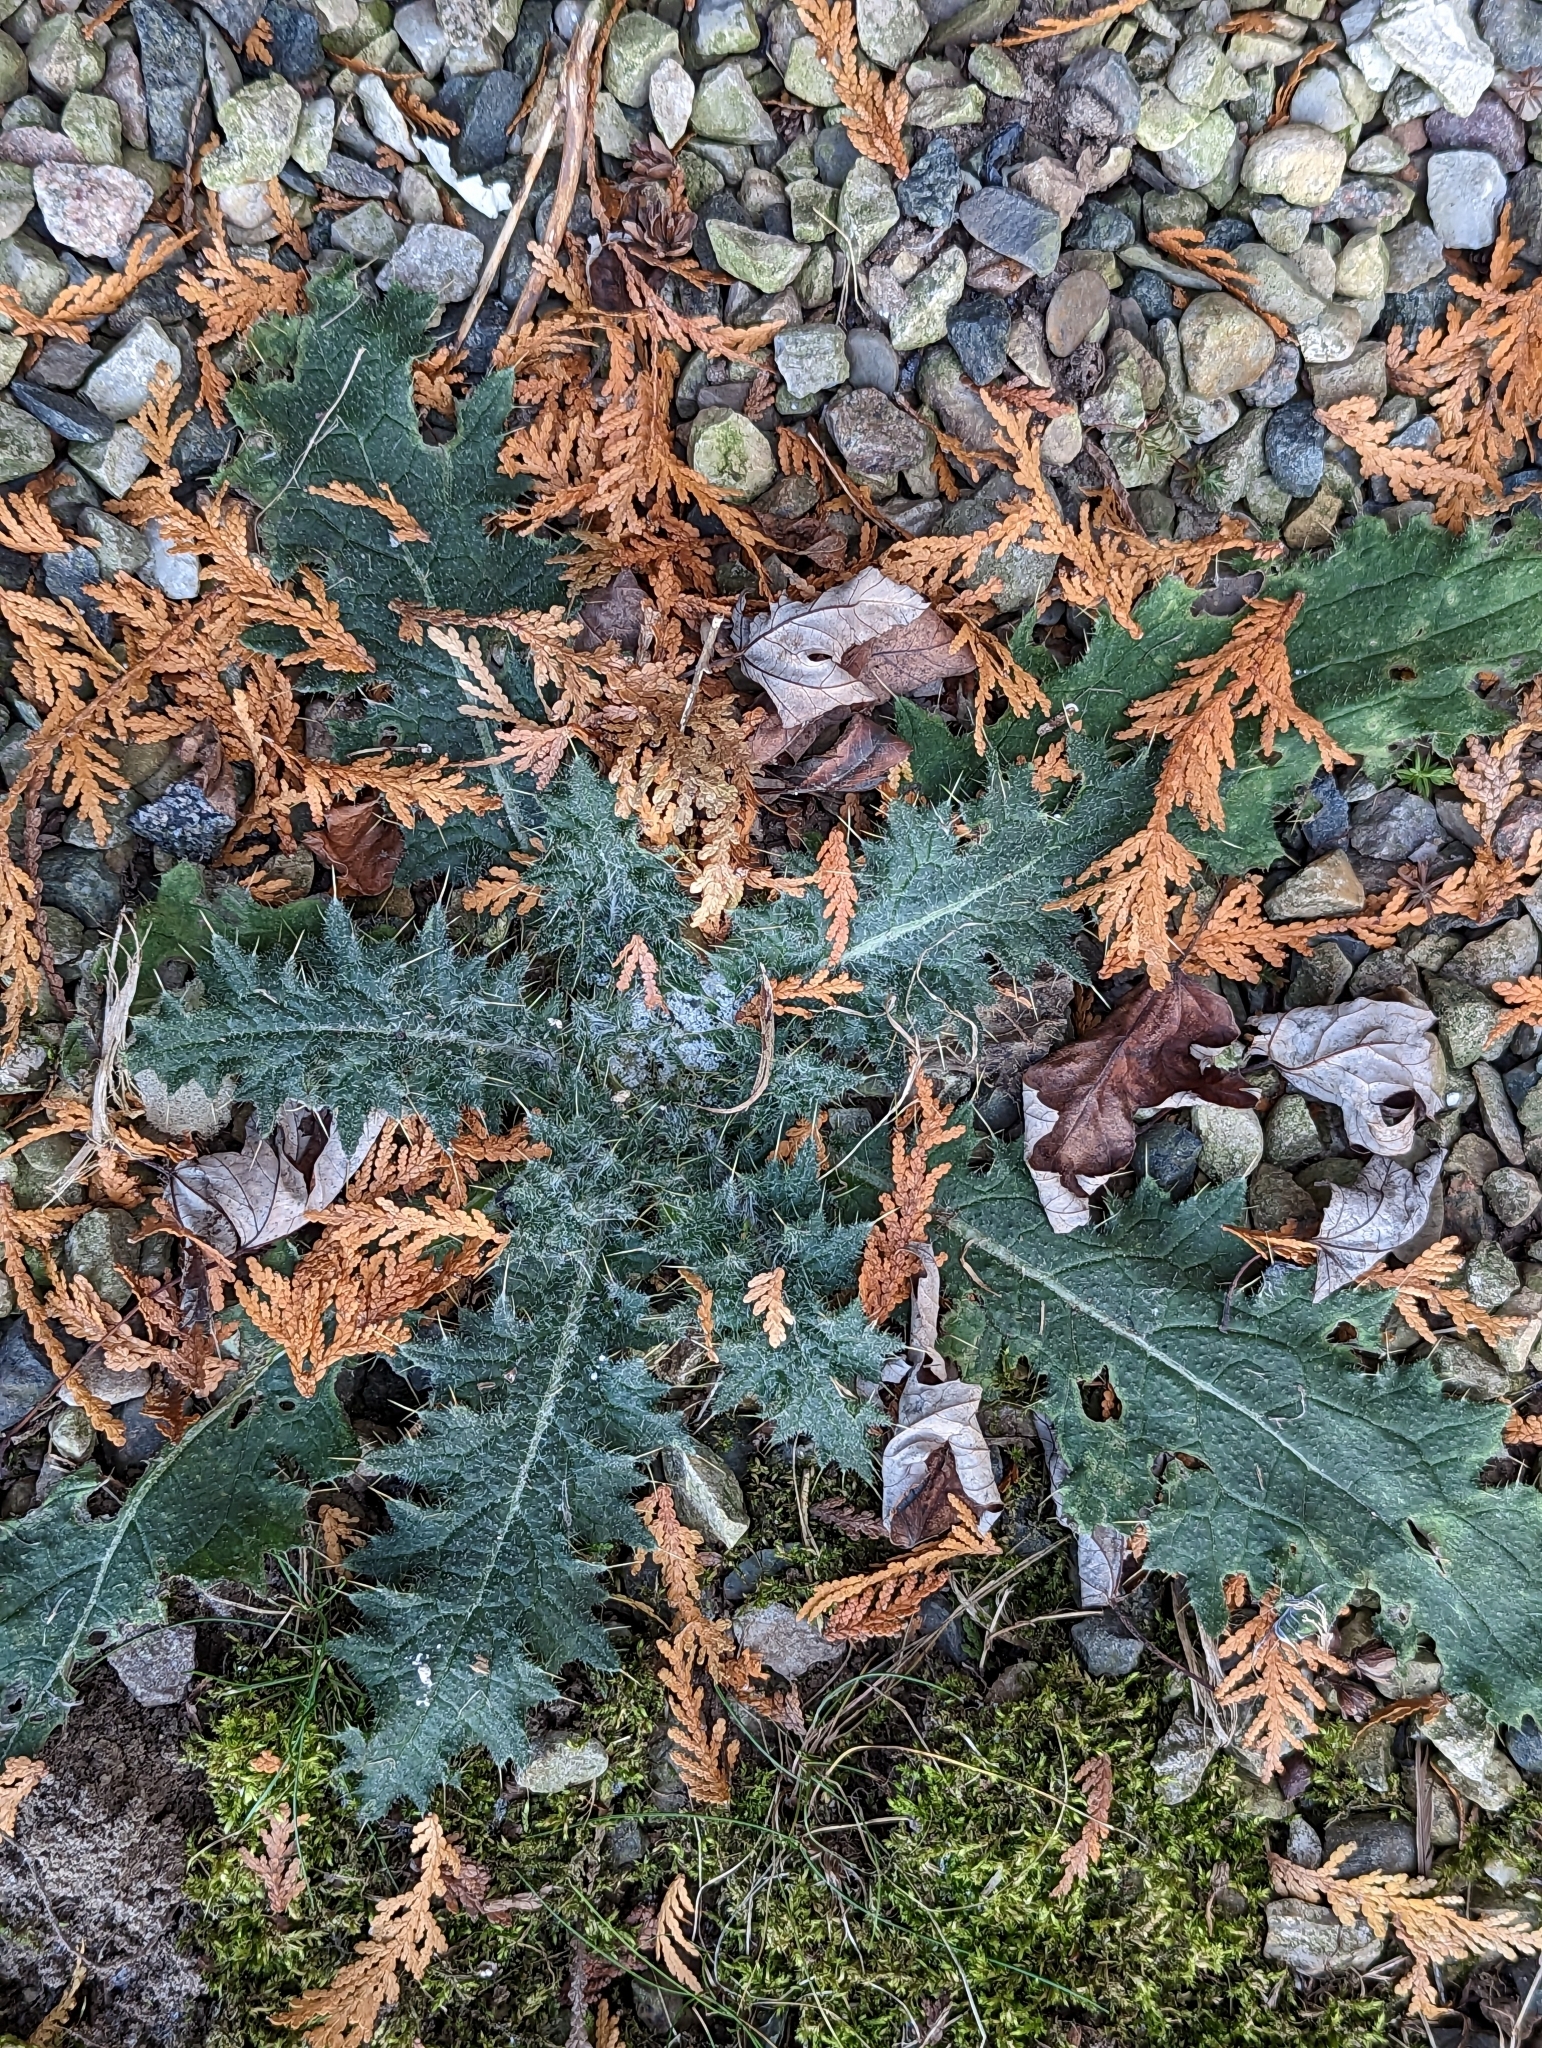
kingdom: Plantae
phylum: Tracheophyta
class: Magnoliopsida
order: Asterales
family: Asteraceae
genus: Cirsium
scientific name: Cirsium vulgare
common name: Bull thistle
